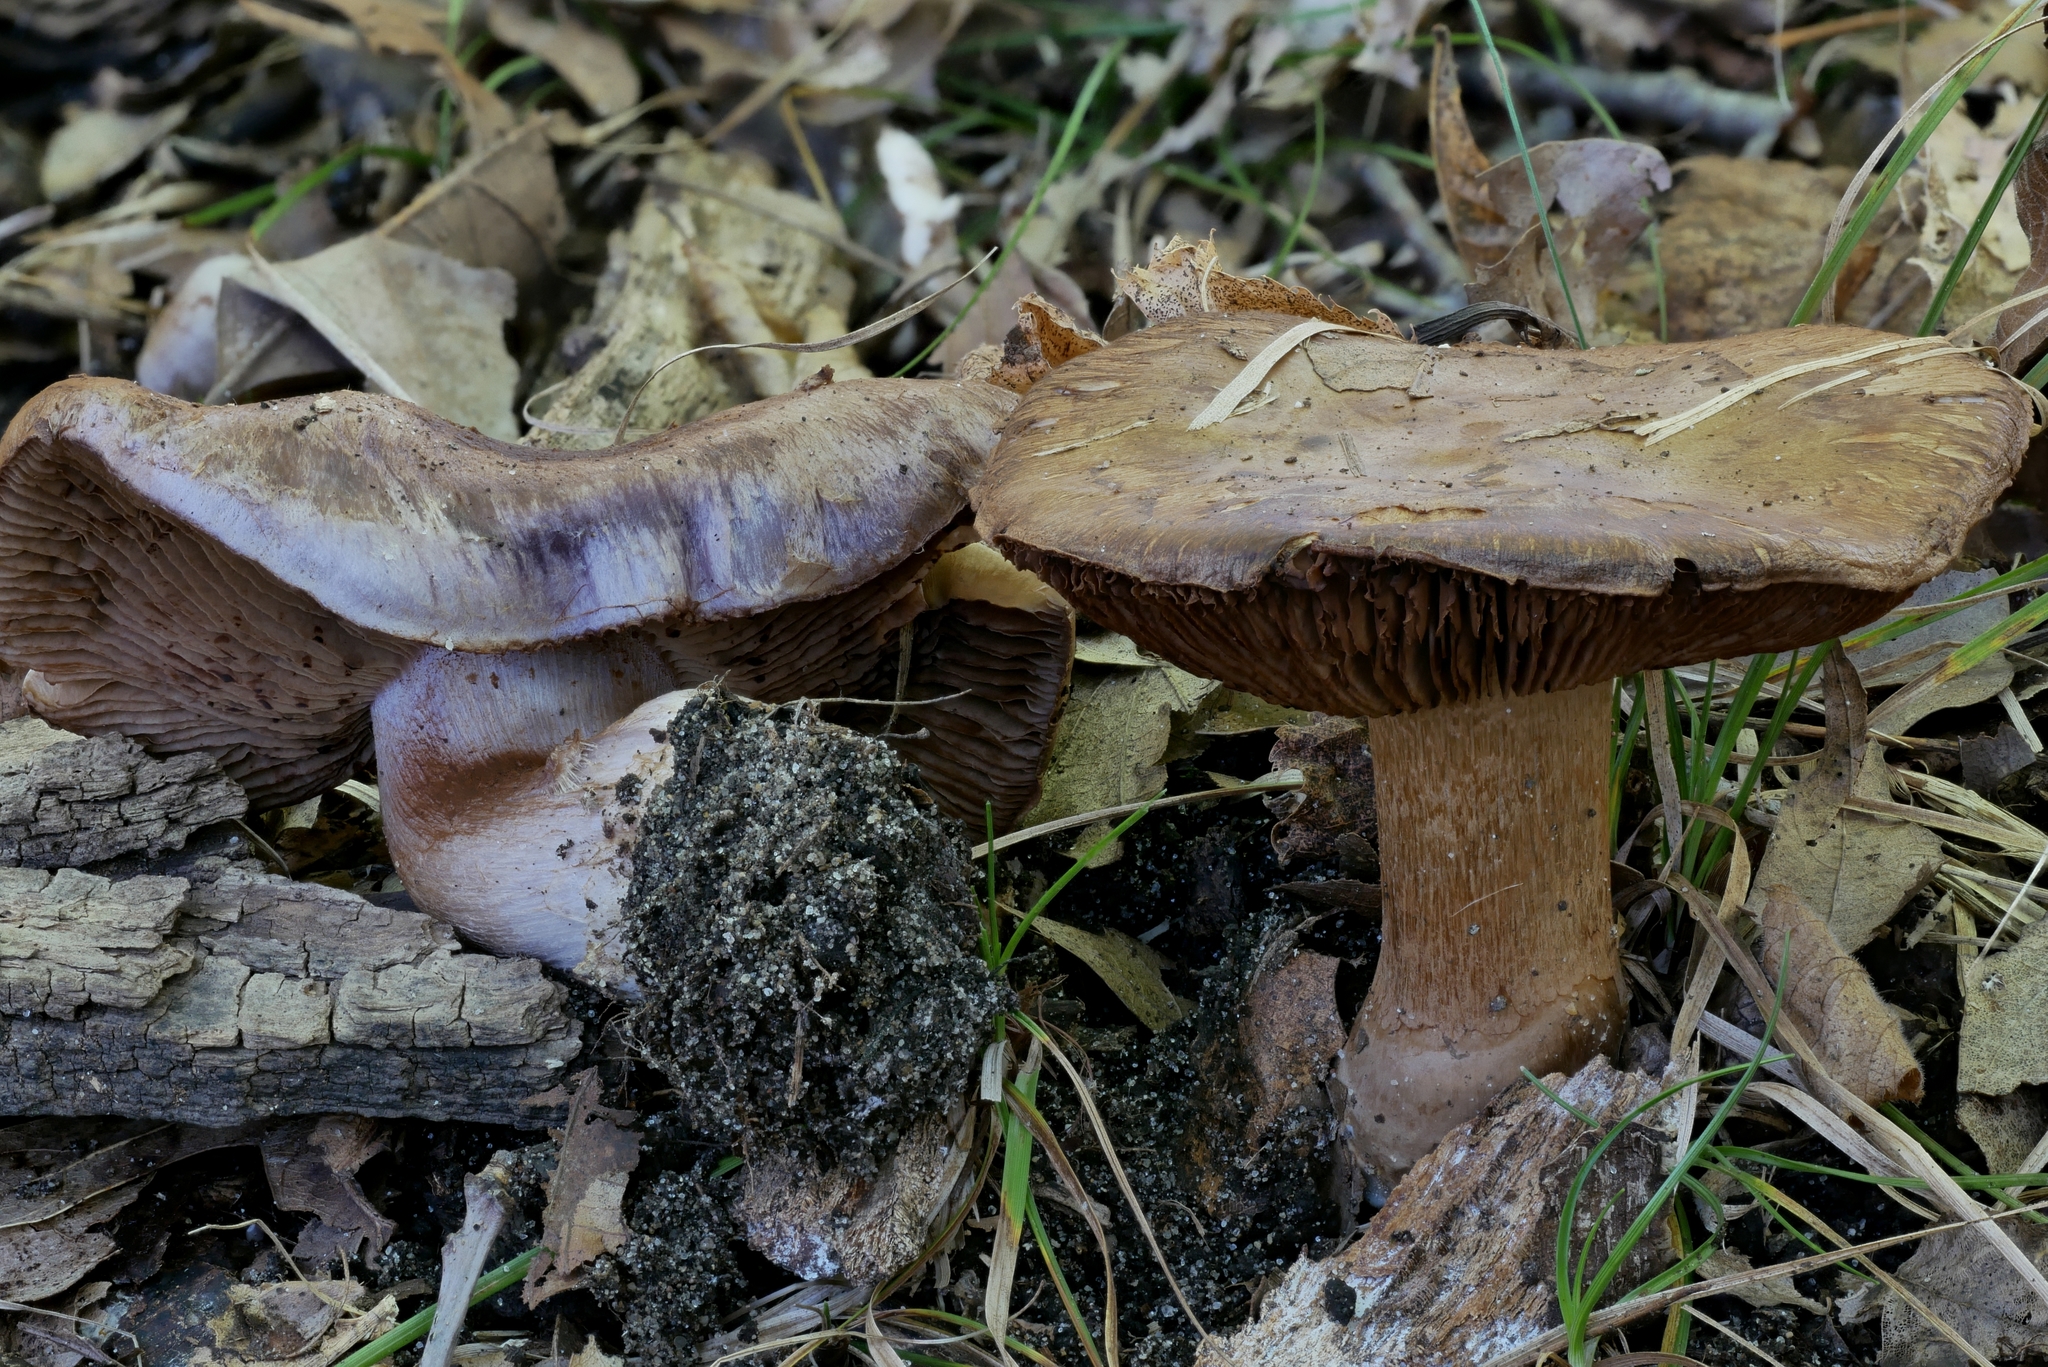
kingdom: Fungi
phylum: Basidiomycota
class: Agaricomycetes
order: Agaricales
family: Cortinariaceae
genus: Phlegmacium
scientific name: Phlegmacium caesiocolor
